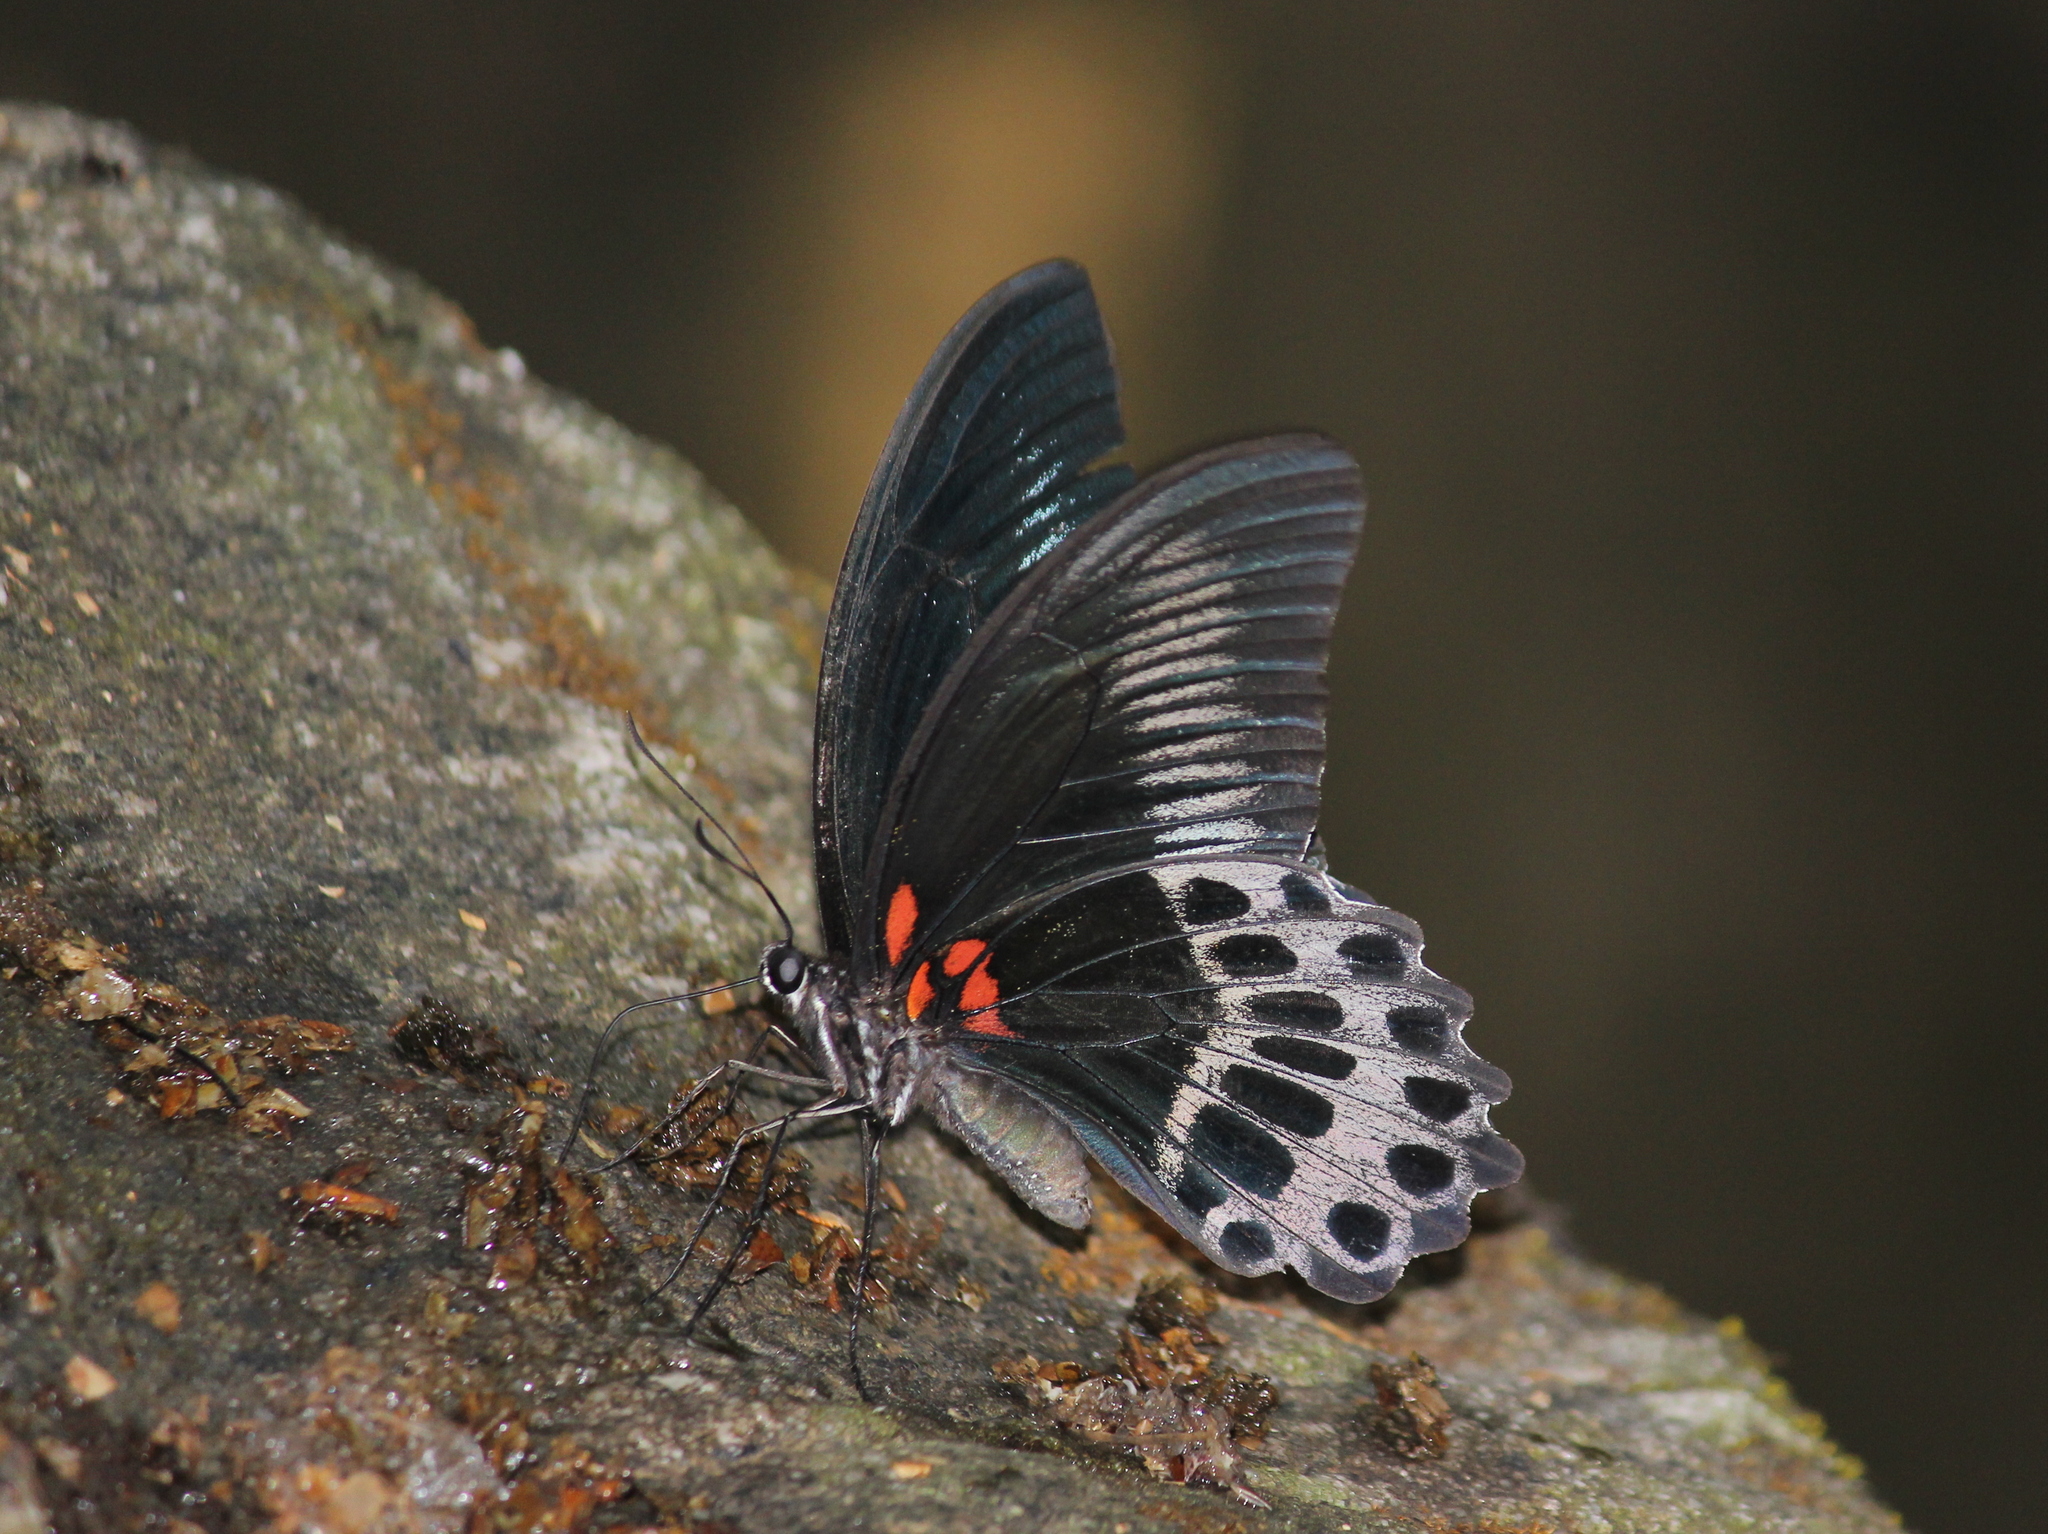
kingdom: Animalia
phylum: Arthropoda
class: Insecta
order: Lepidoptera
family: Papilionidae
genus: Papilio
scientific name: Papilio memnon
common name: Great mormon
